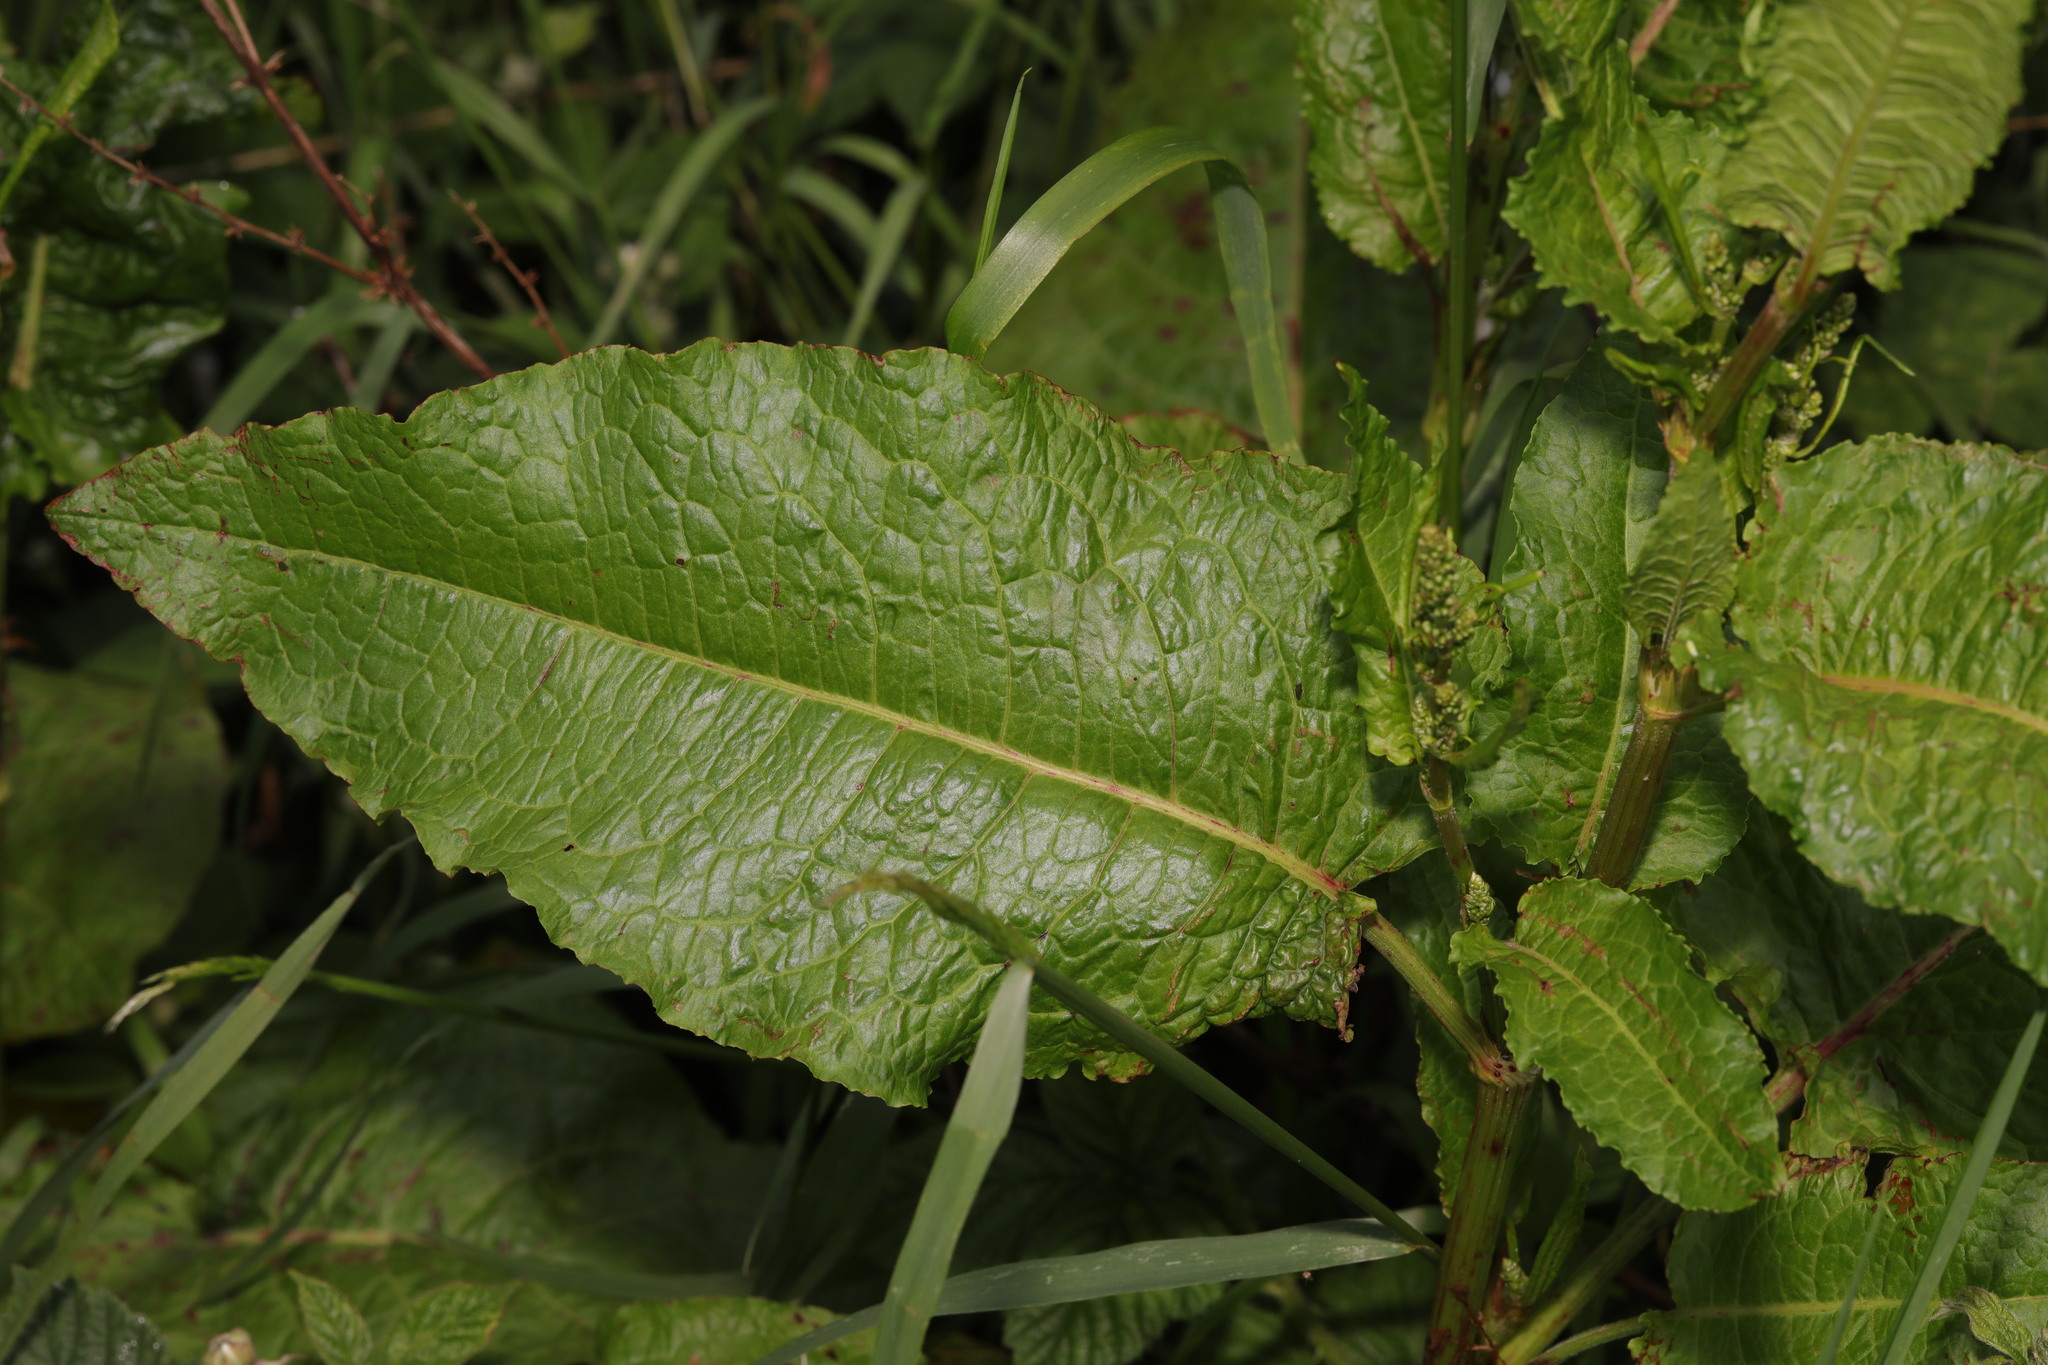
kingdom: Plantae
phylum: Tracheophyta
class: Magnoliopsida
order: Caryophyllales
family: Polygonaceae
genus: Rumex
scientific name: Rumex obtusifolius
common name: Bitter dock
